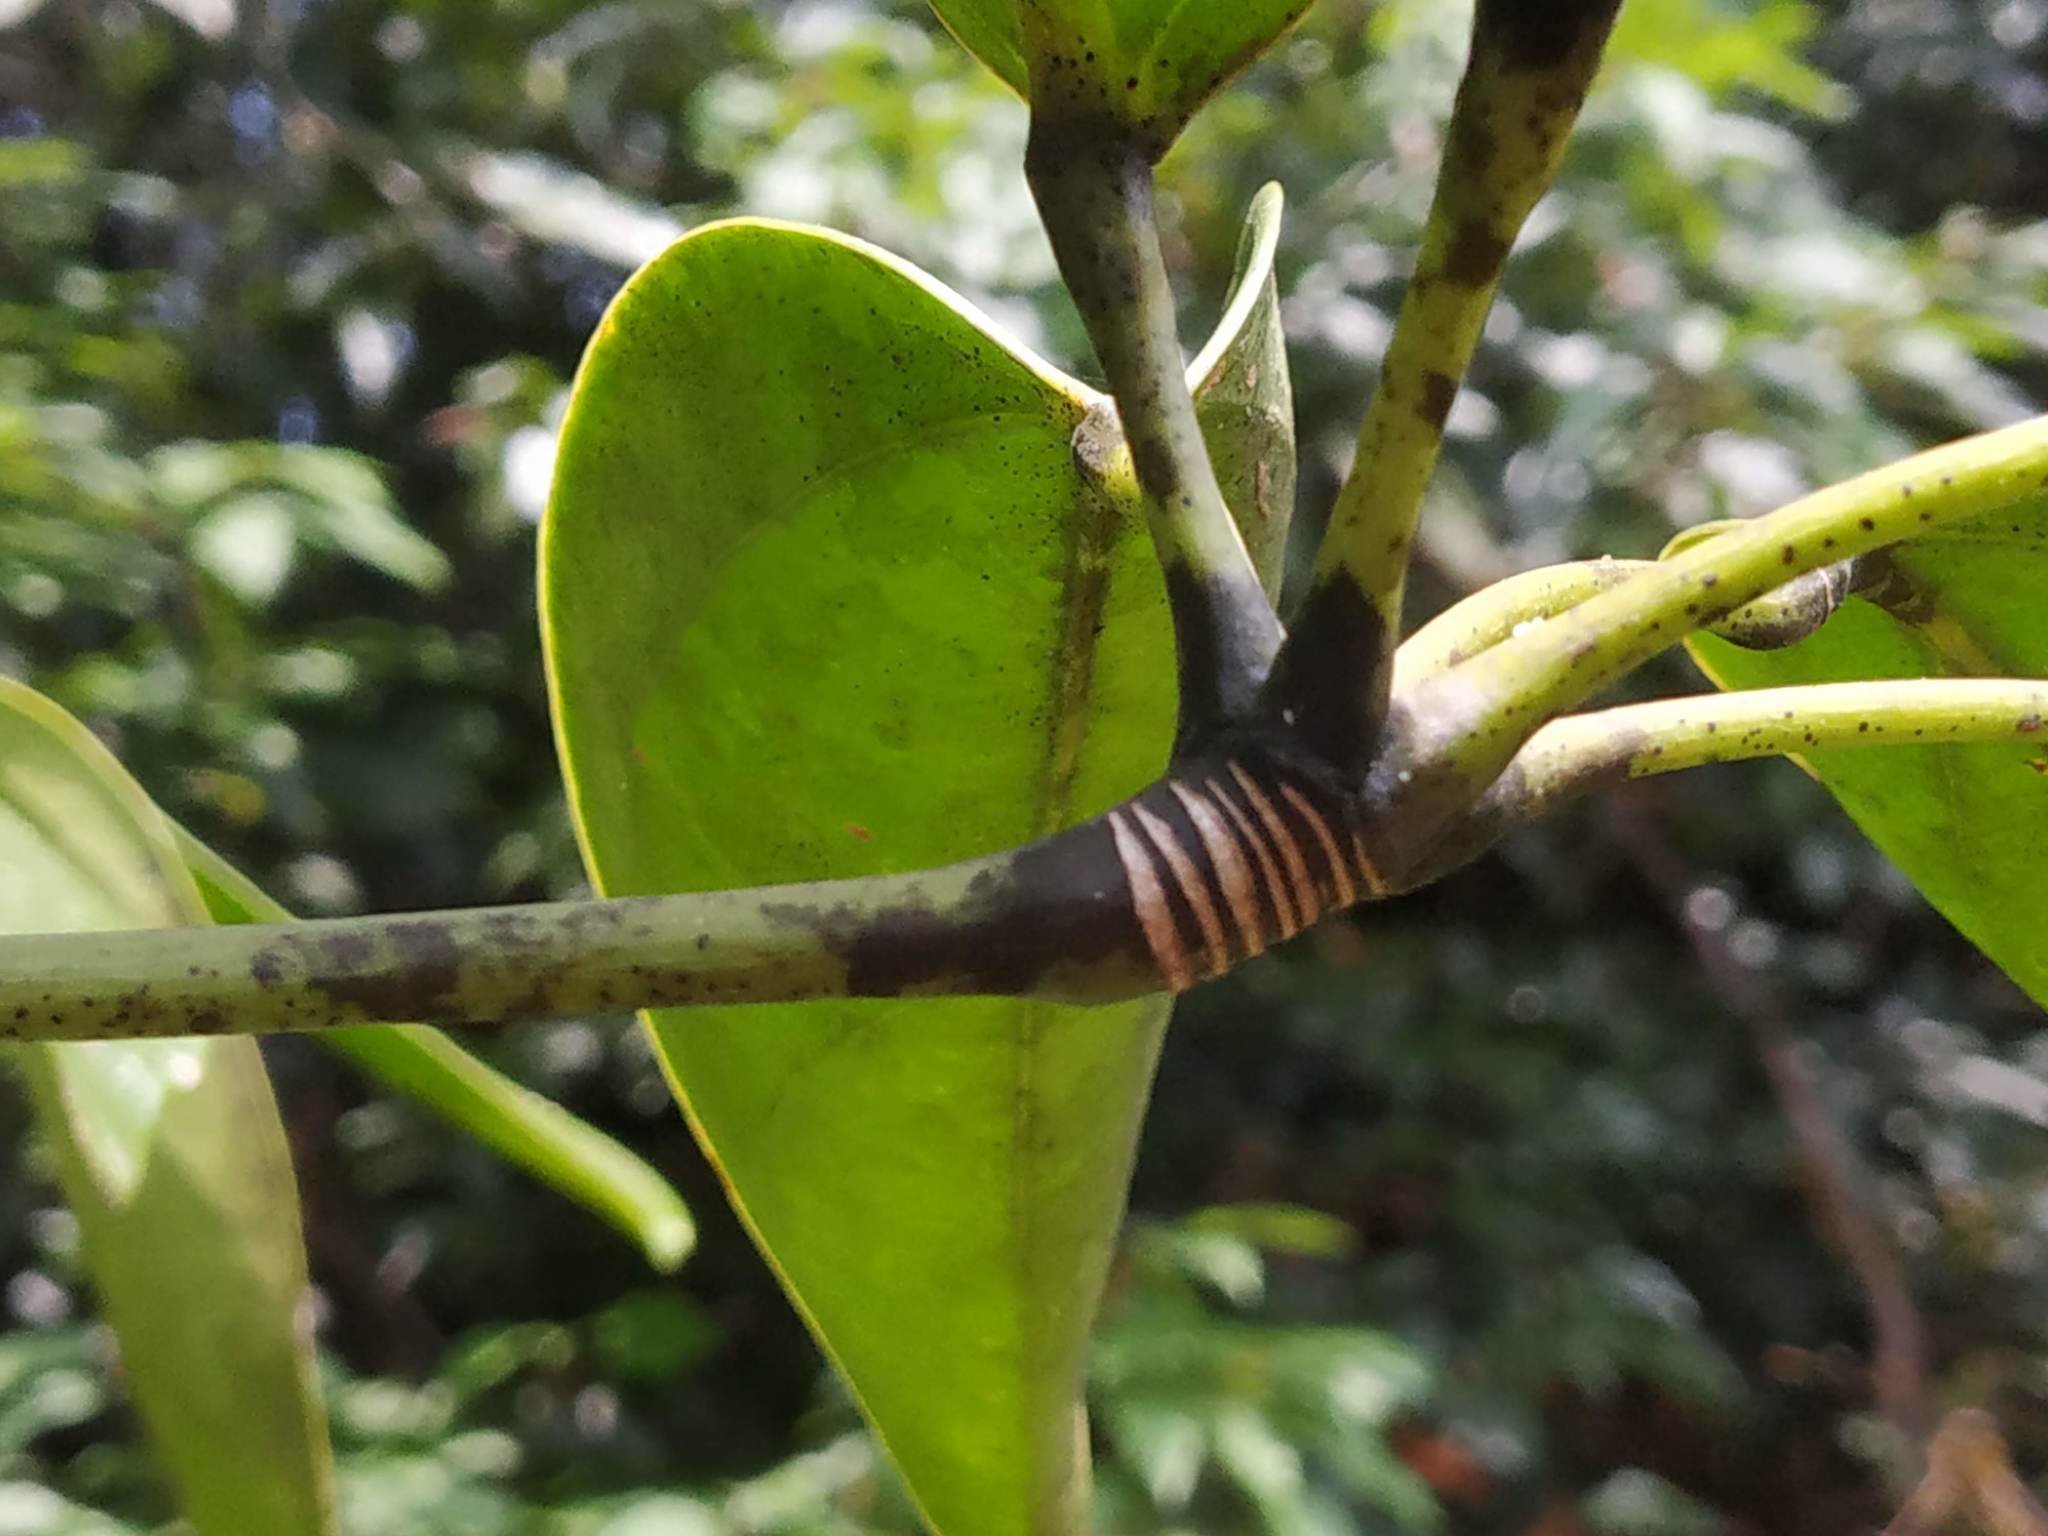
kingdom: Plantae
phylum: Tracheophyta
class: Magnoliopsida
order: Apiales
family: Araliaceae
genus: Heptapleurum
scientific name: Heptapleurum arboricola
